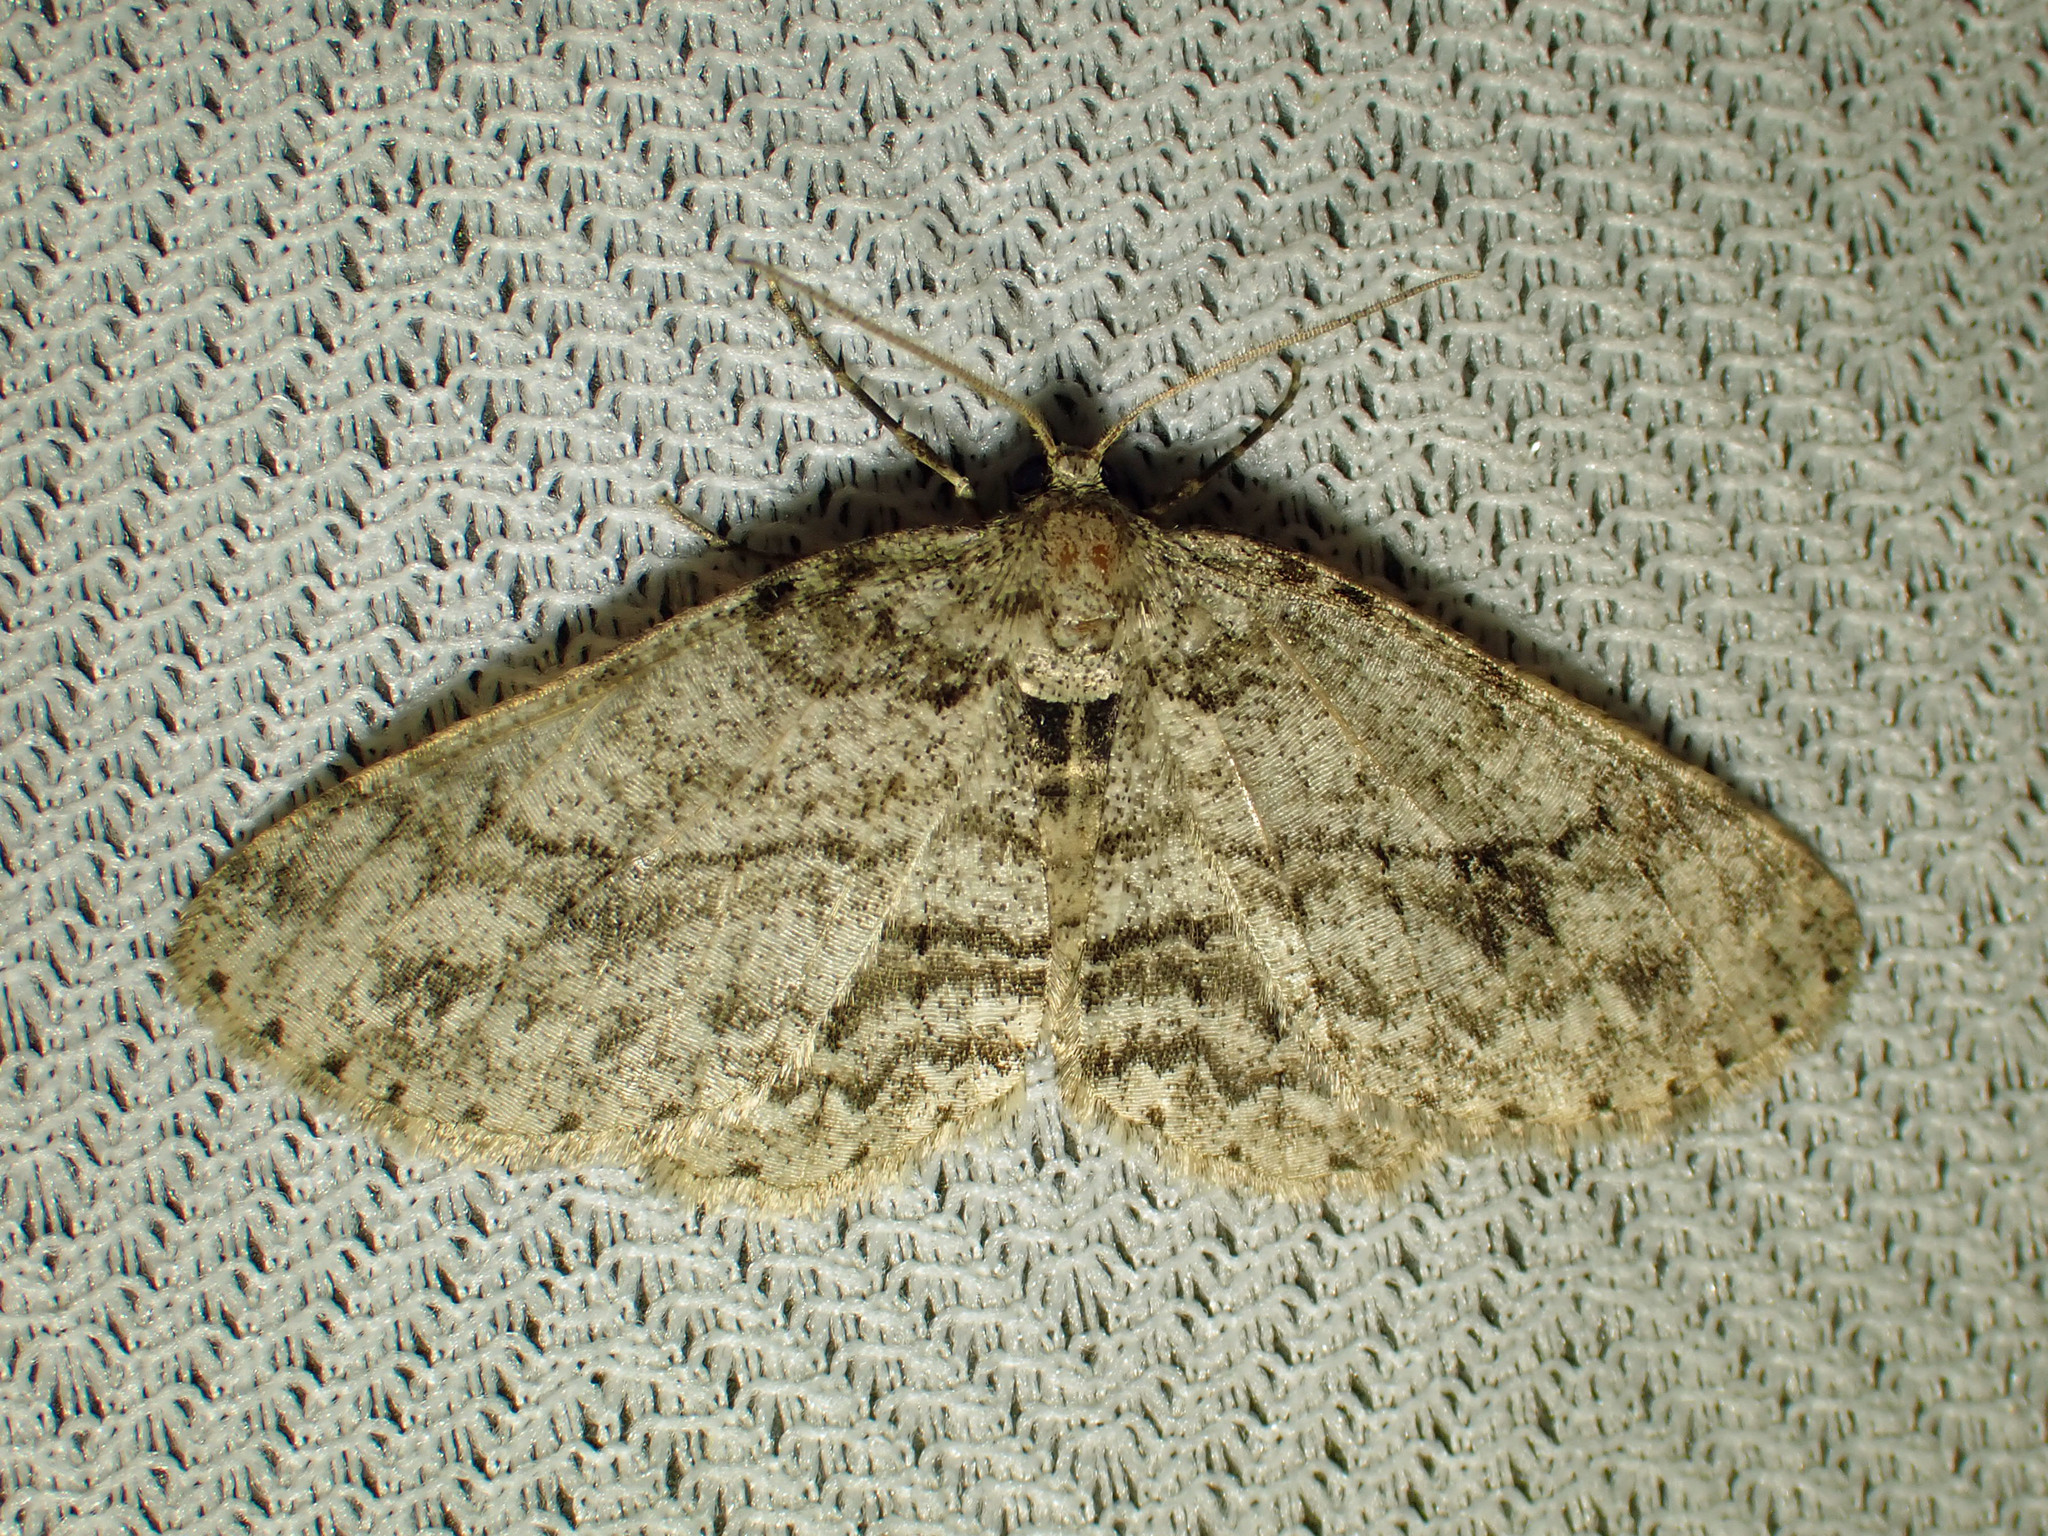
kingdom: Animalia
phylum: Arthropoda
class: Insecta
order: Lepidoptera
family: Geometridae
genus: Ectropis
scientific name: Ectropis crepuscularia
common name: Engrailed
